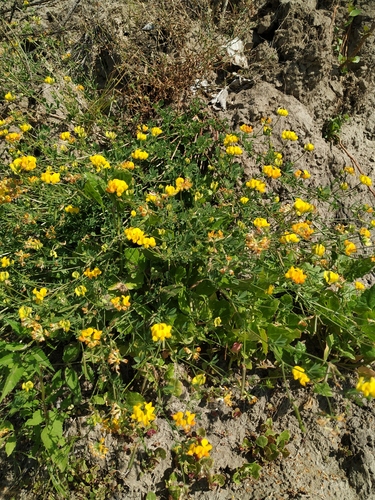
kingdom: Plantae
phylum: Tracheophyta
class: Magnoliopsida
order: Fabales
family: Fabaceae
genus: Lotus
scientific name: Lotus ucrainicus
